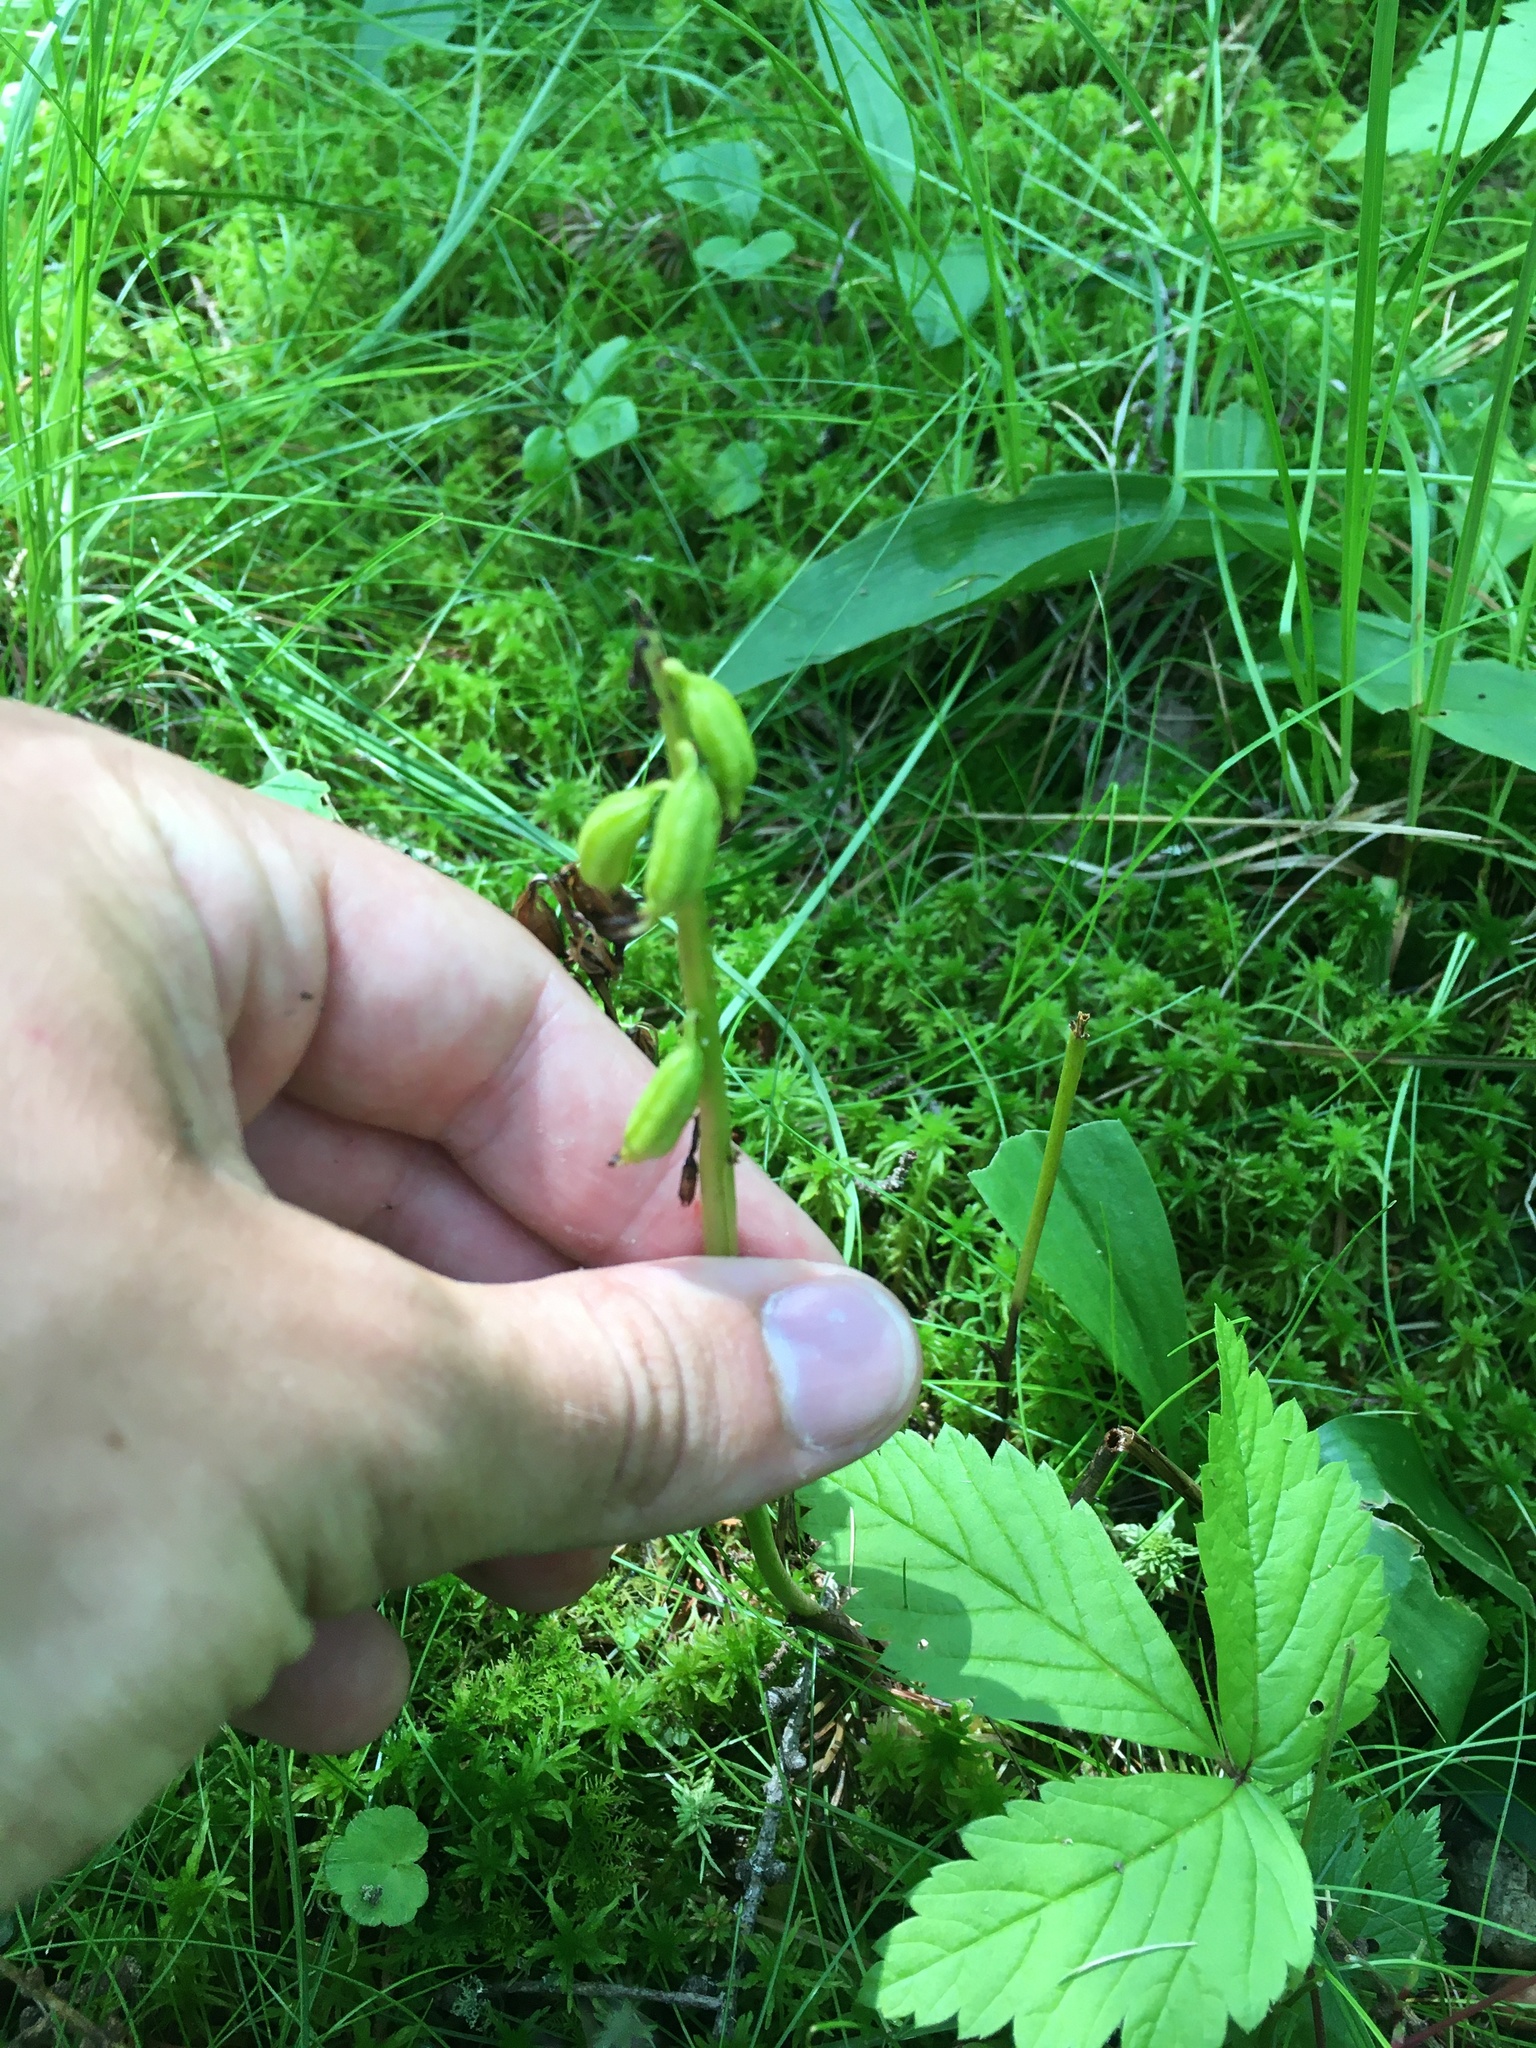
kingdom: Plantae
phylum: Tracheophyta
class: Liliopsida
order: Asparagales
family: Orchidaceae
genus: Corallorhiza
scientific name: Corallorhiza trifida
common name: Yellow coralroot
